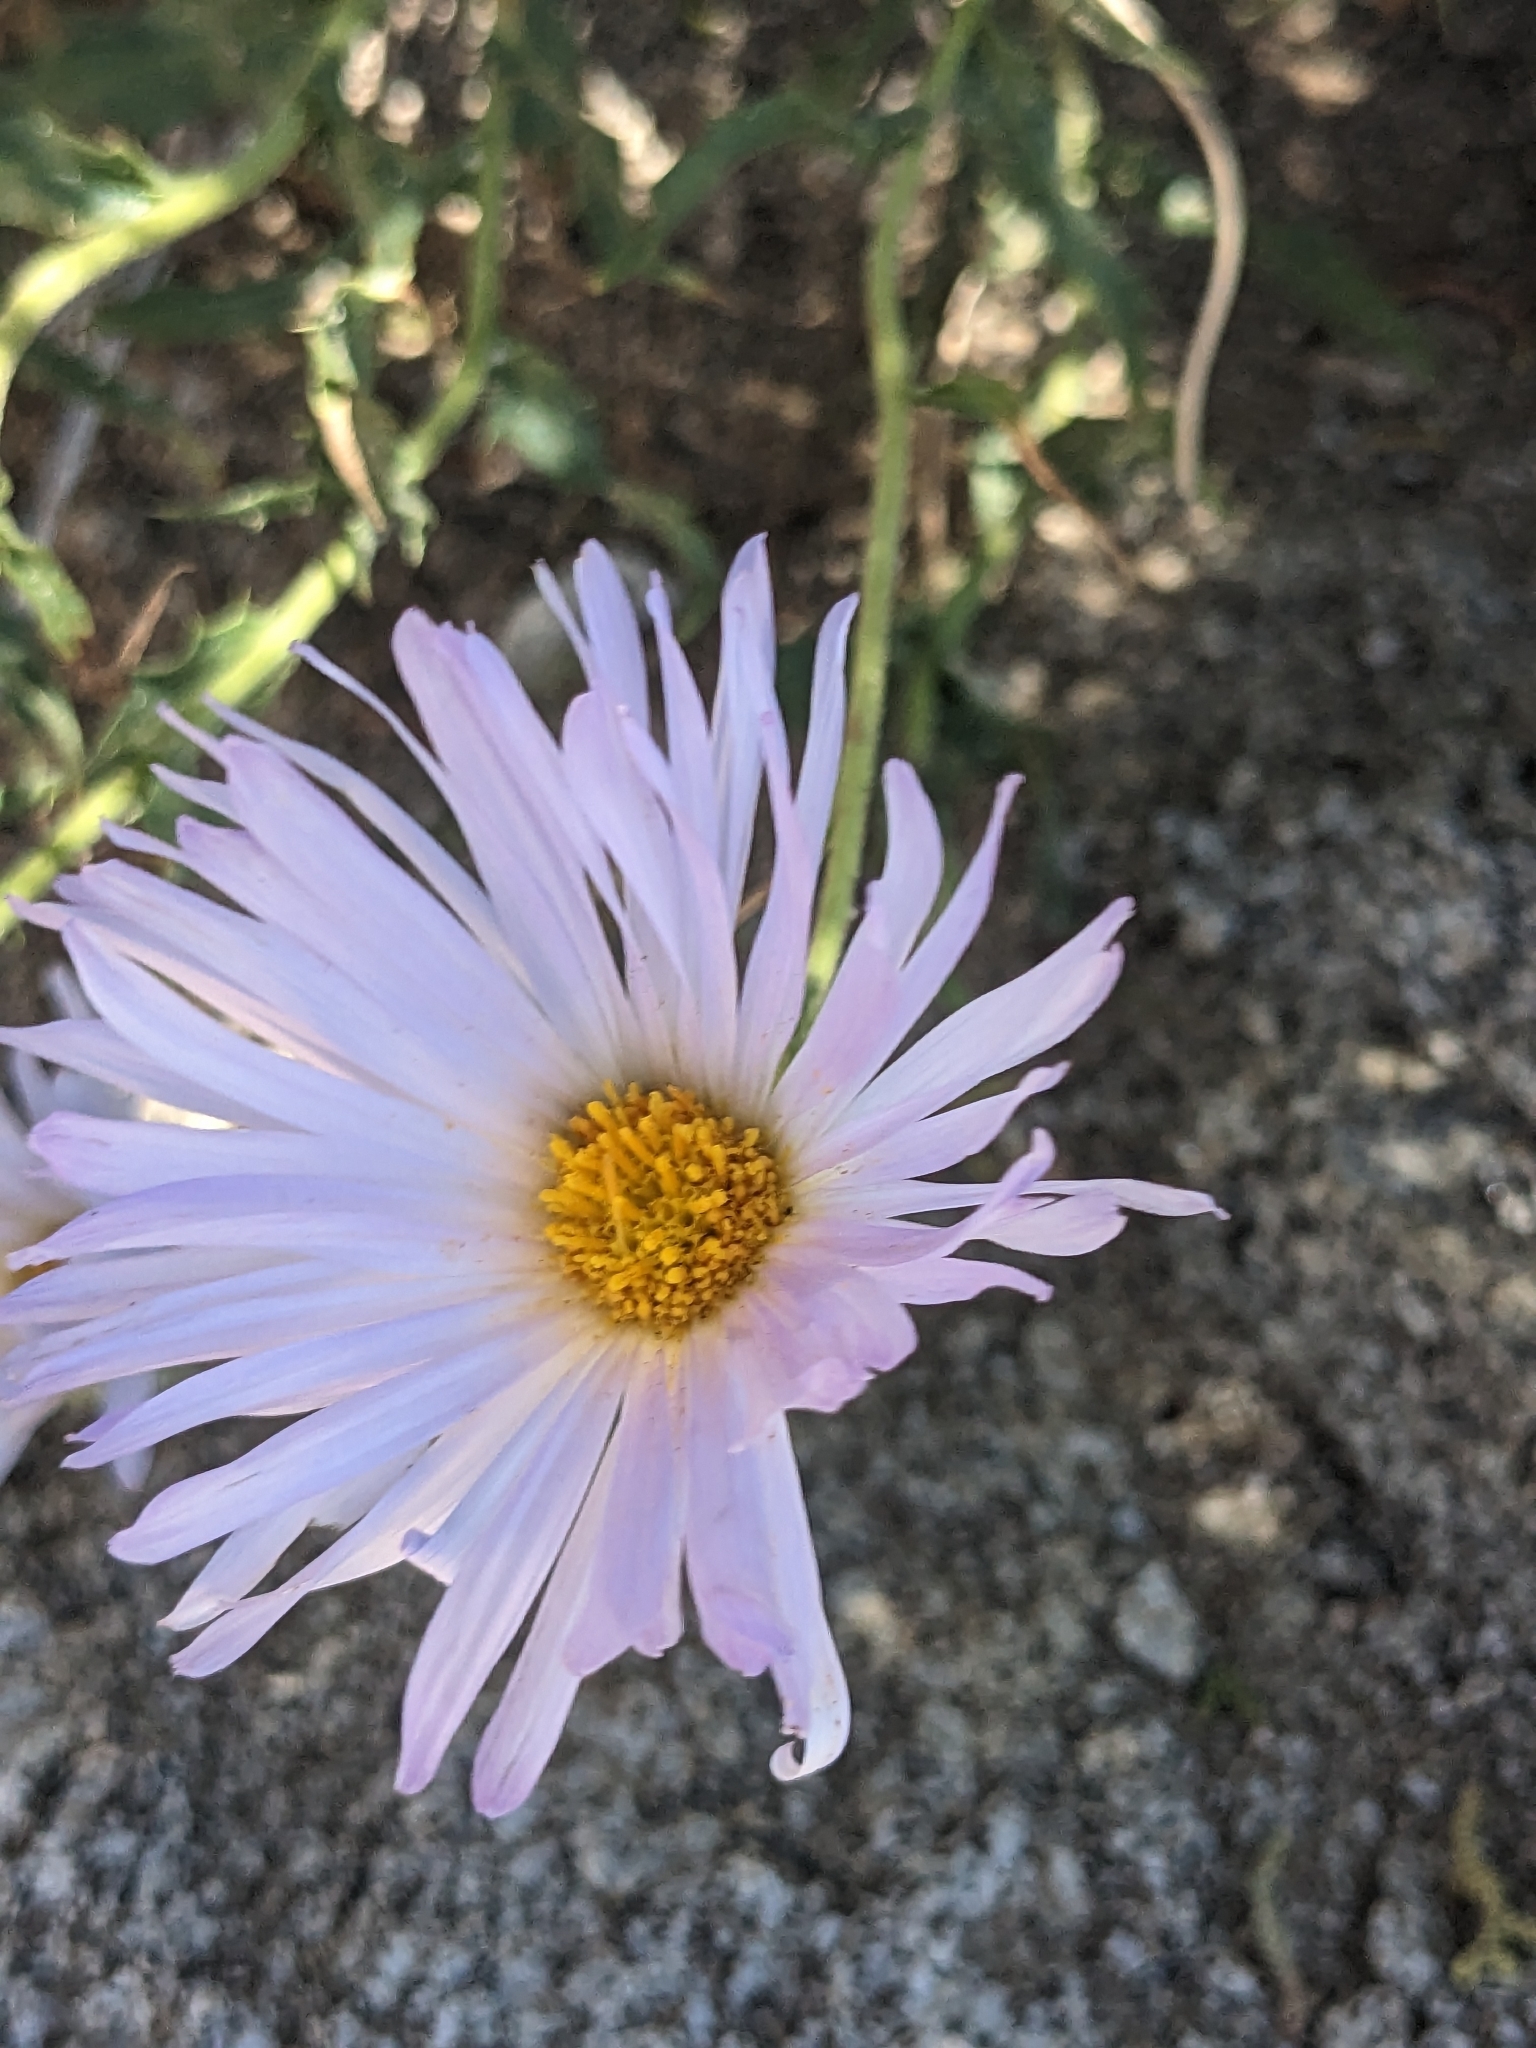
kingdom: Plantae
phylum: Tracheophyta
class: Magnoliopsida
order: Asterales
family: Asteraceae
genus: Xylorhiza
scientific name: Xylorhiza tortifolia
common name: Hurt-leaf woody-aster
